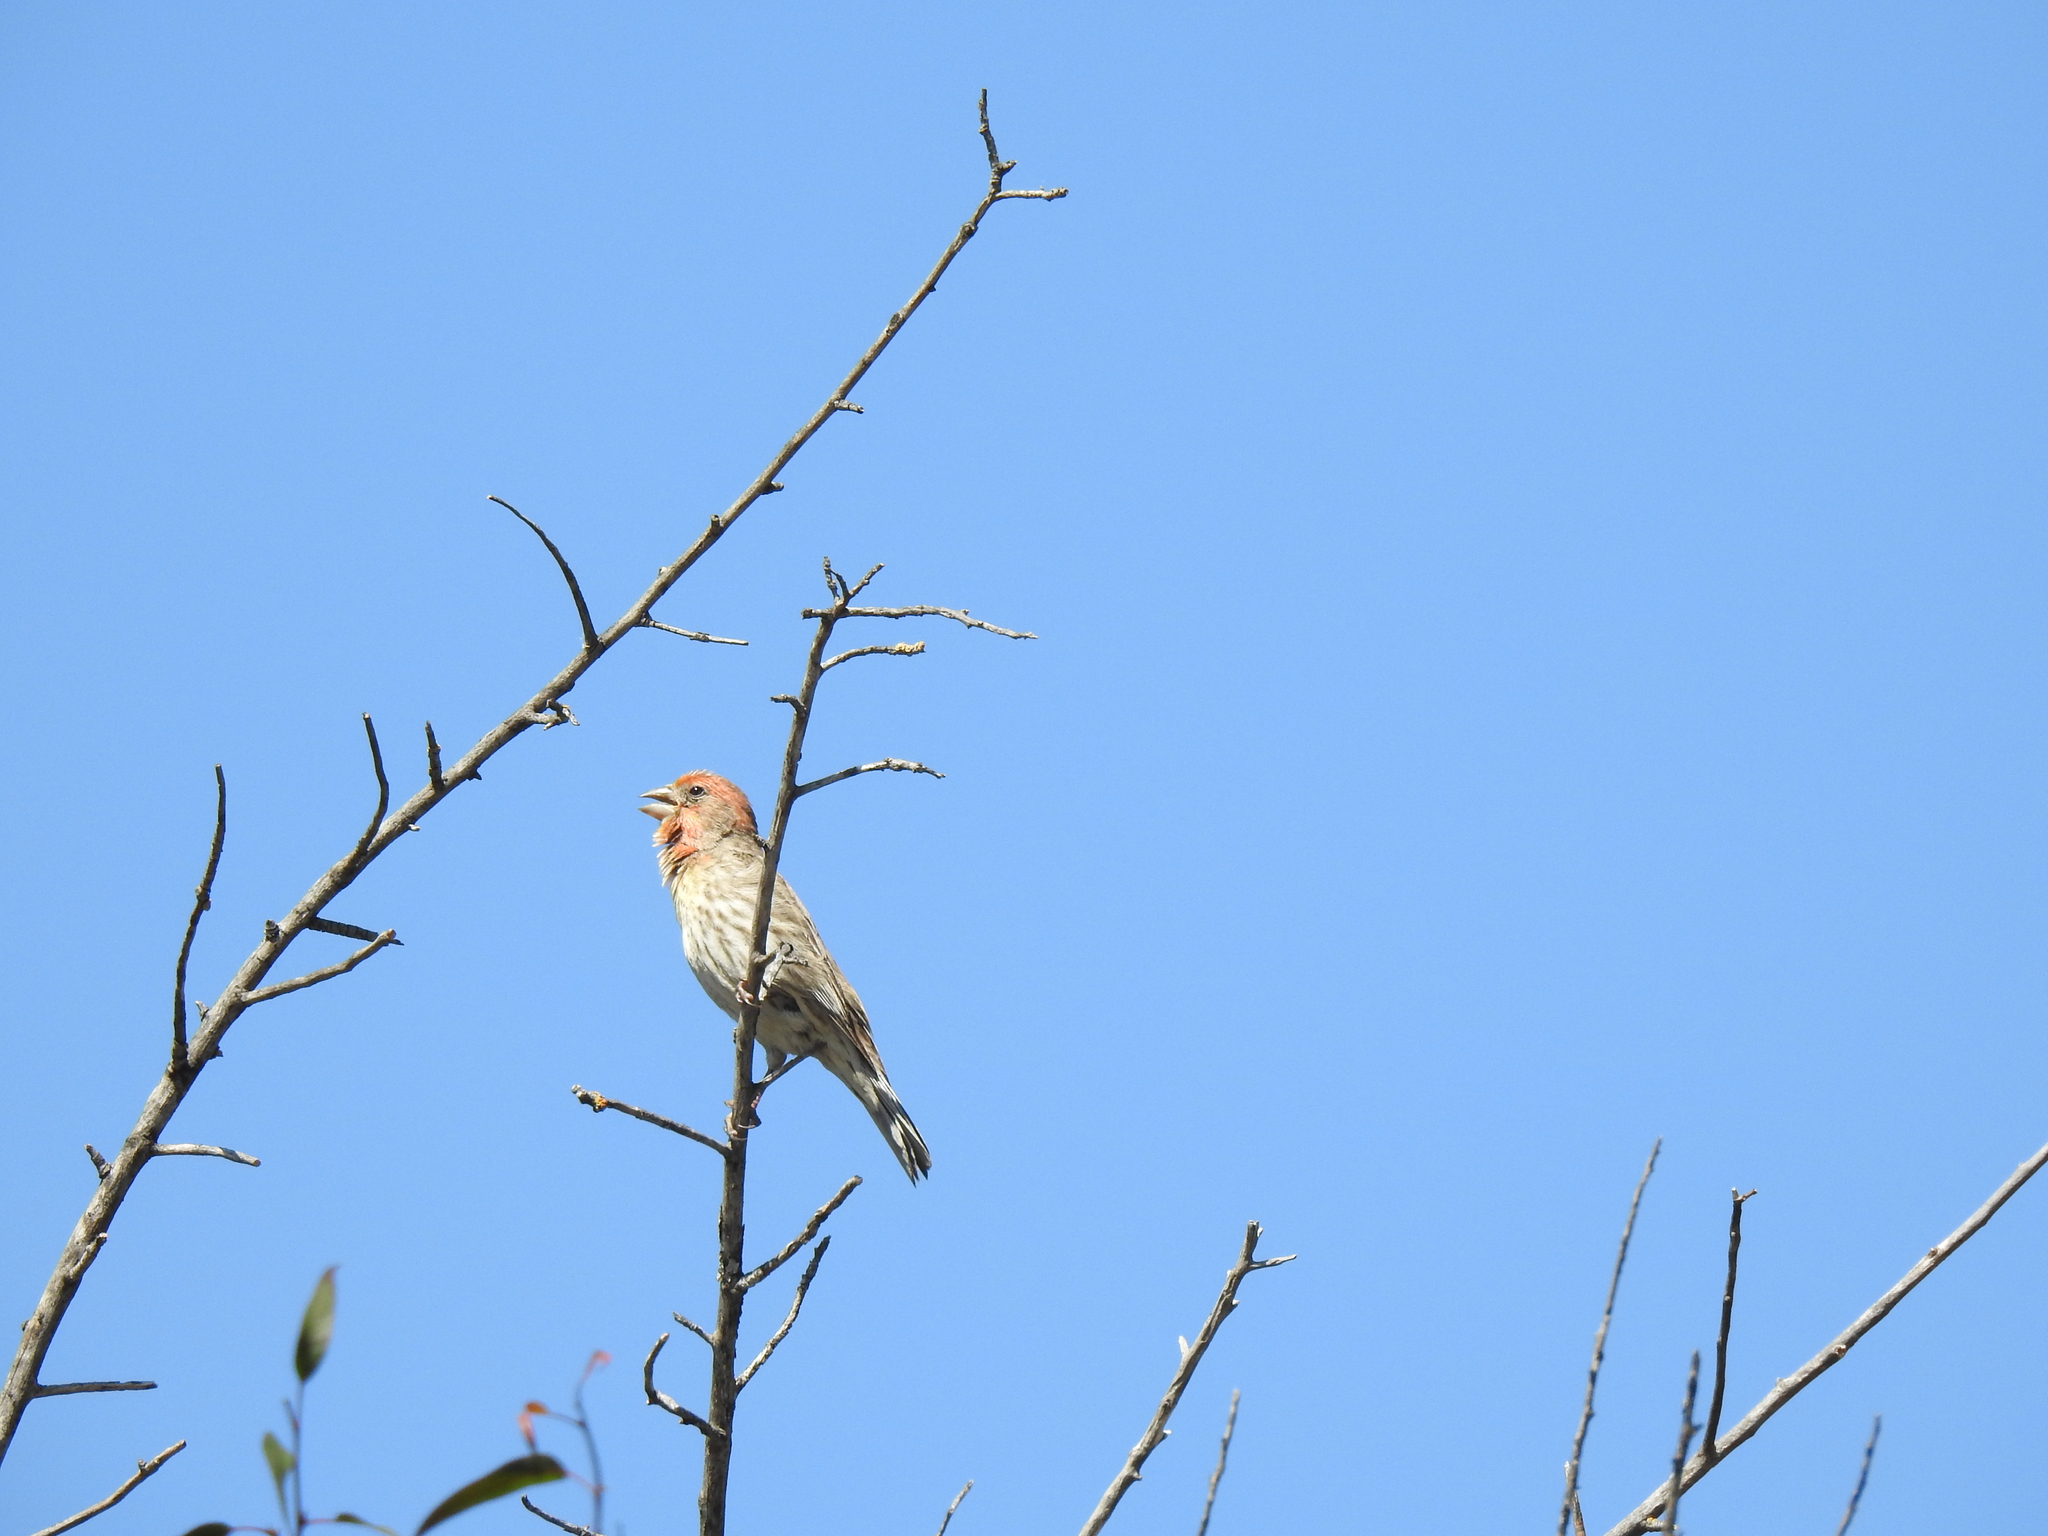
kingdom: Animalia
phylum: Chordata
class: Aves
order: Passeriformes
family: Fringillidae
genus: Haemorhous
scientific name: Haemorhous mexicanus
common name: House finch
